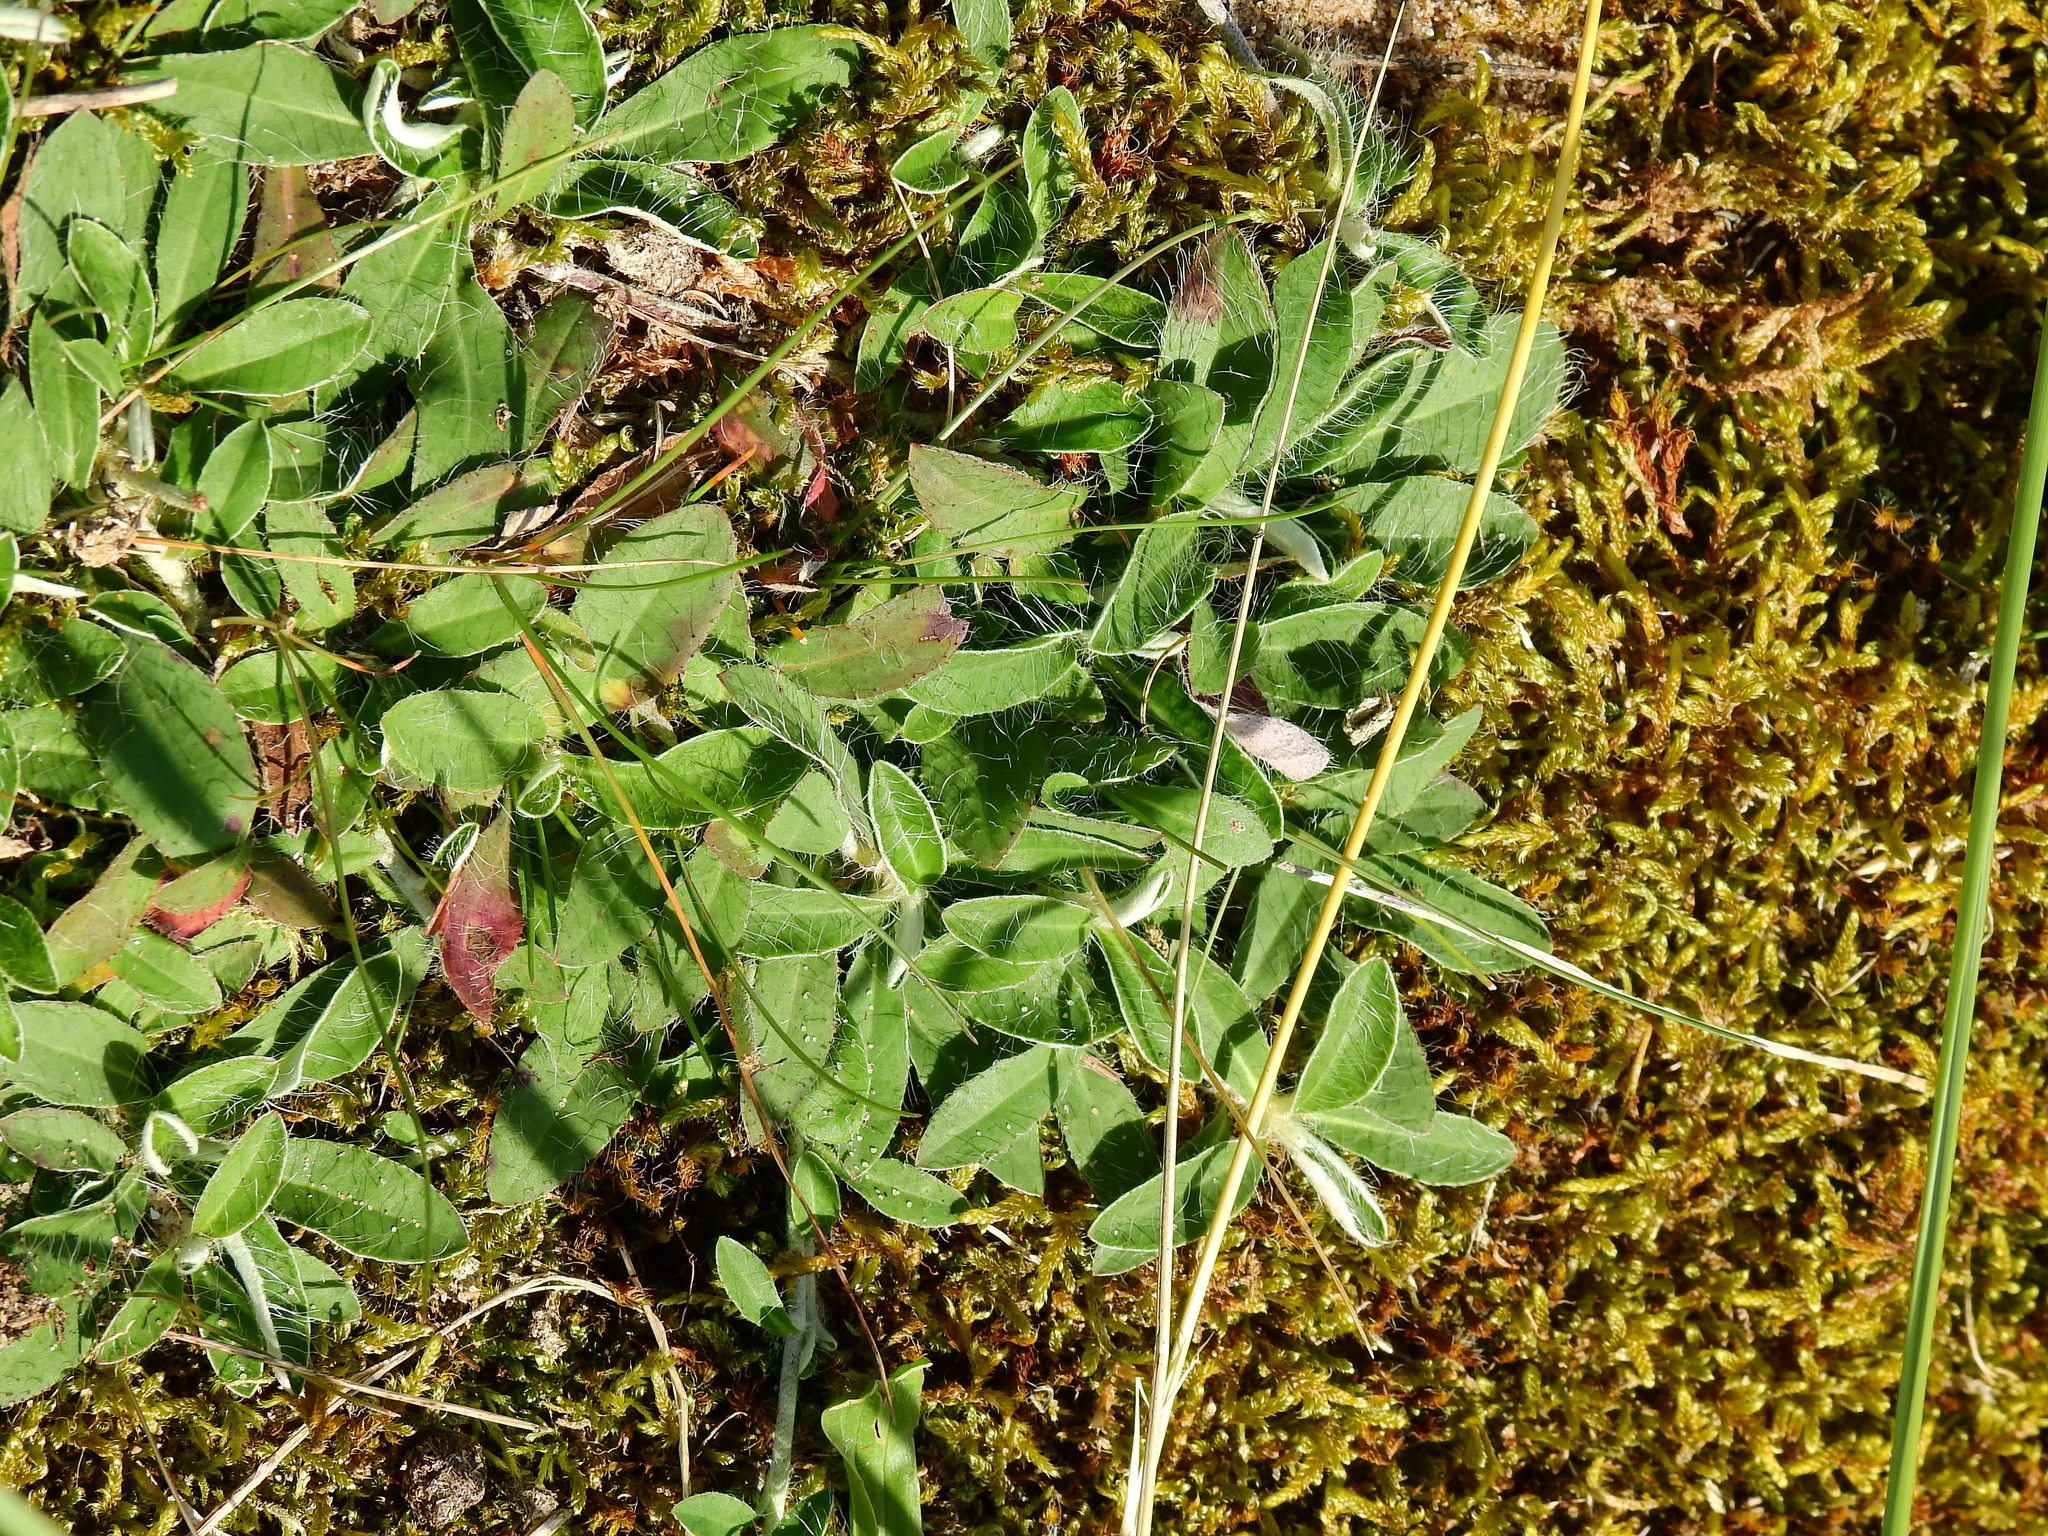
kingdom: Plantae
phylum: Tracheophyta
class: Magnoliopsida
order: Asterales
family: Asteraceae
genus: Pilosella
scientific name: Pilosella officinarum
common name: Mouse-ear hawkweed
